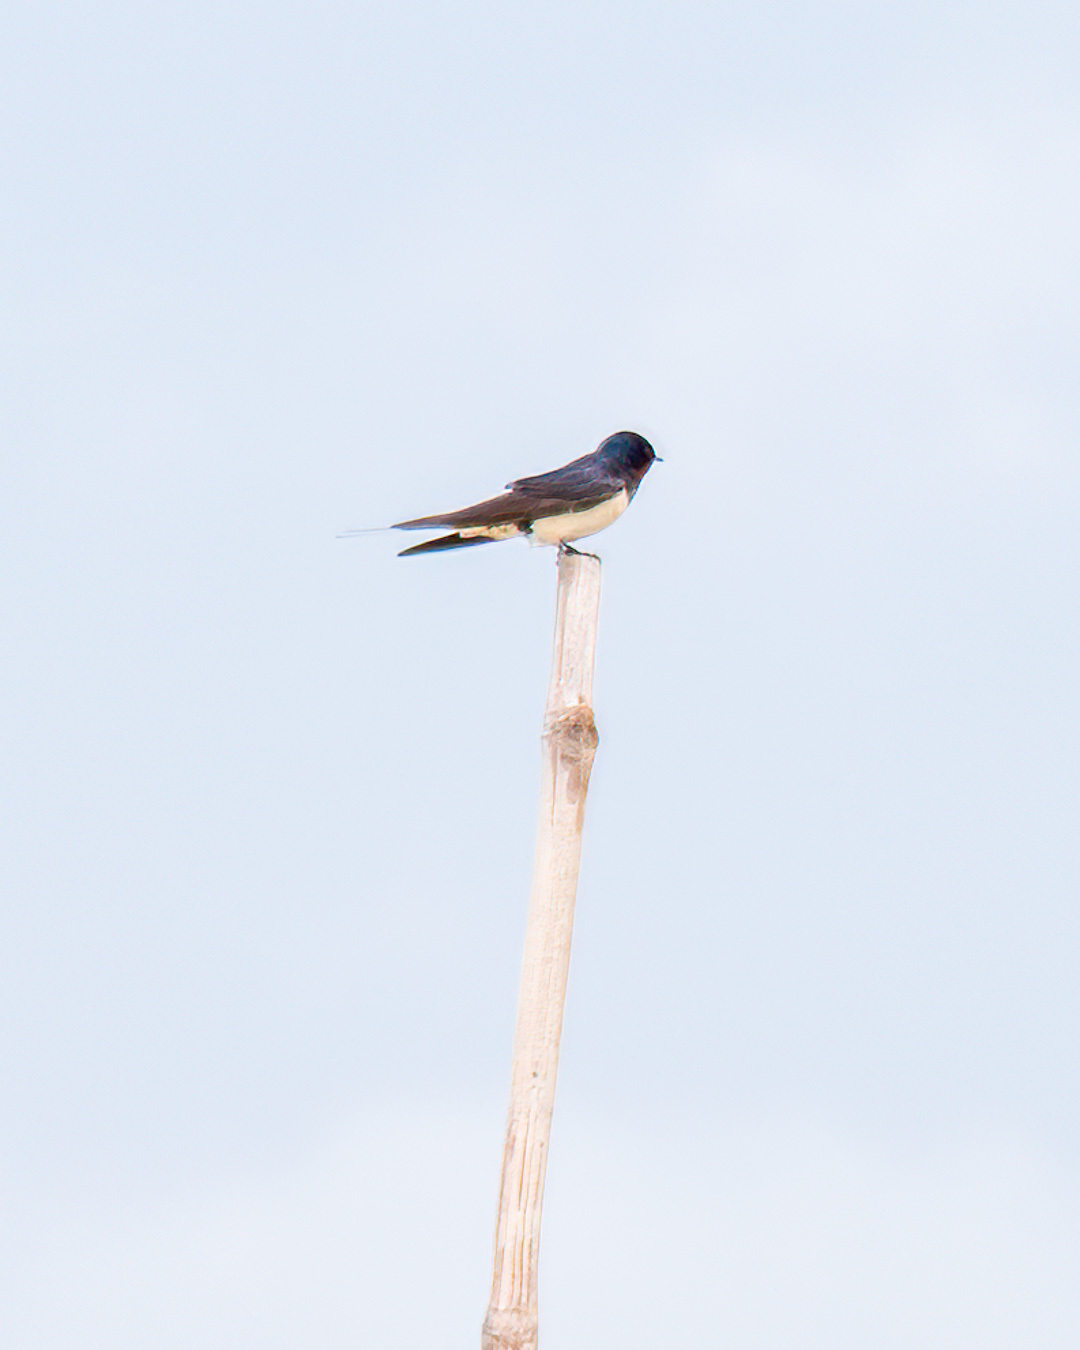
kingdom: Animalia
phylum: Chordata
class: Aves
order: Passeriformes
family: Hirundinidae
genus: Hirundo
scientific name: Hirundo rustica
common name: Barn swallow
